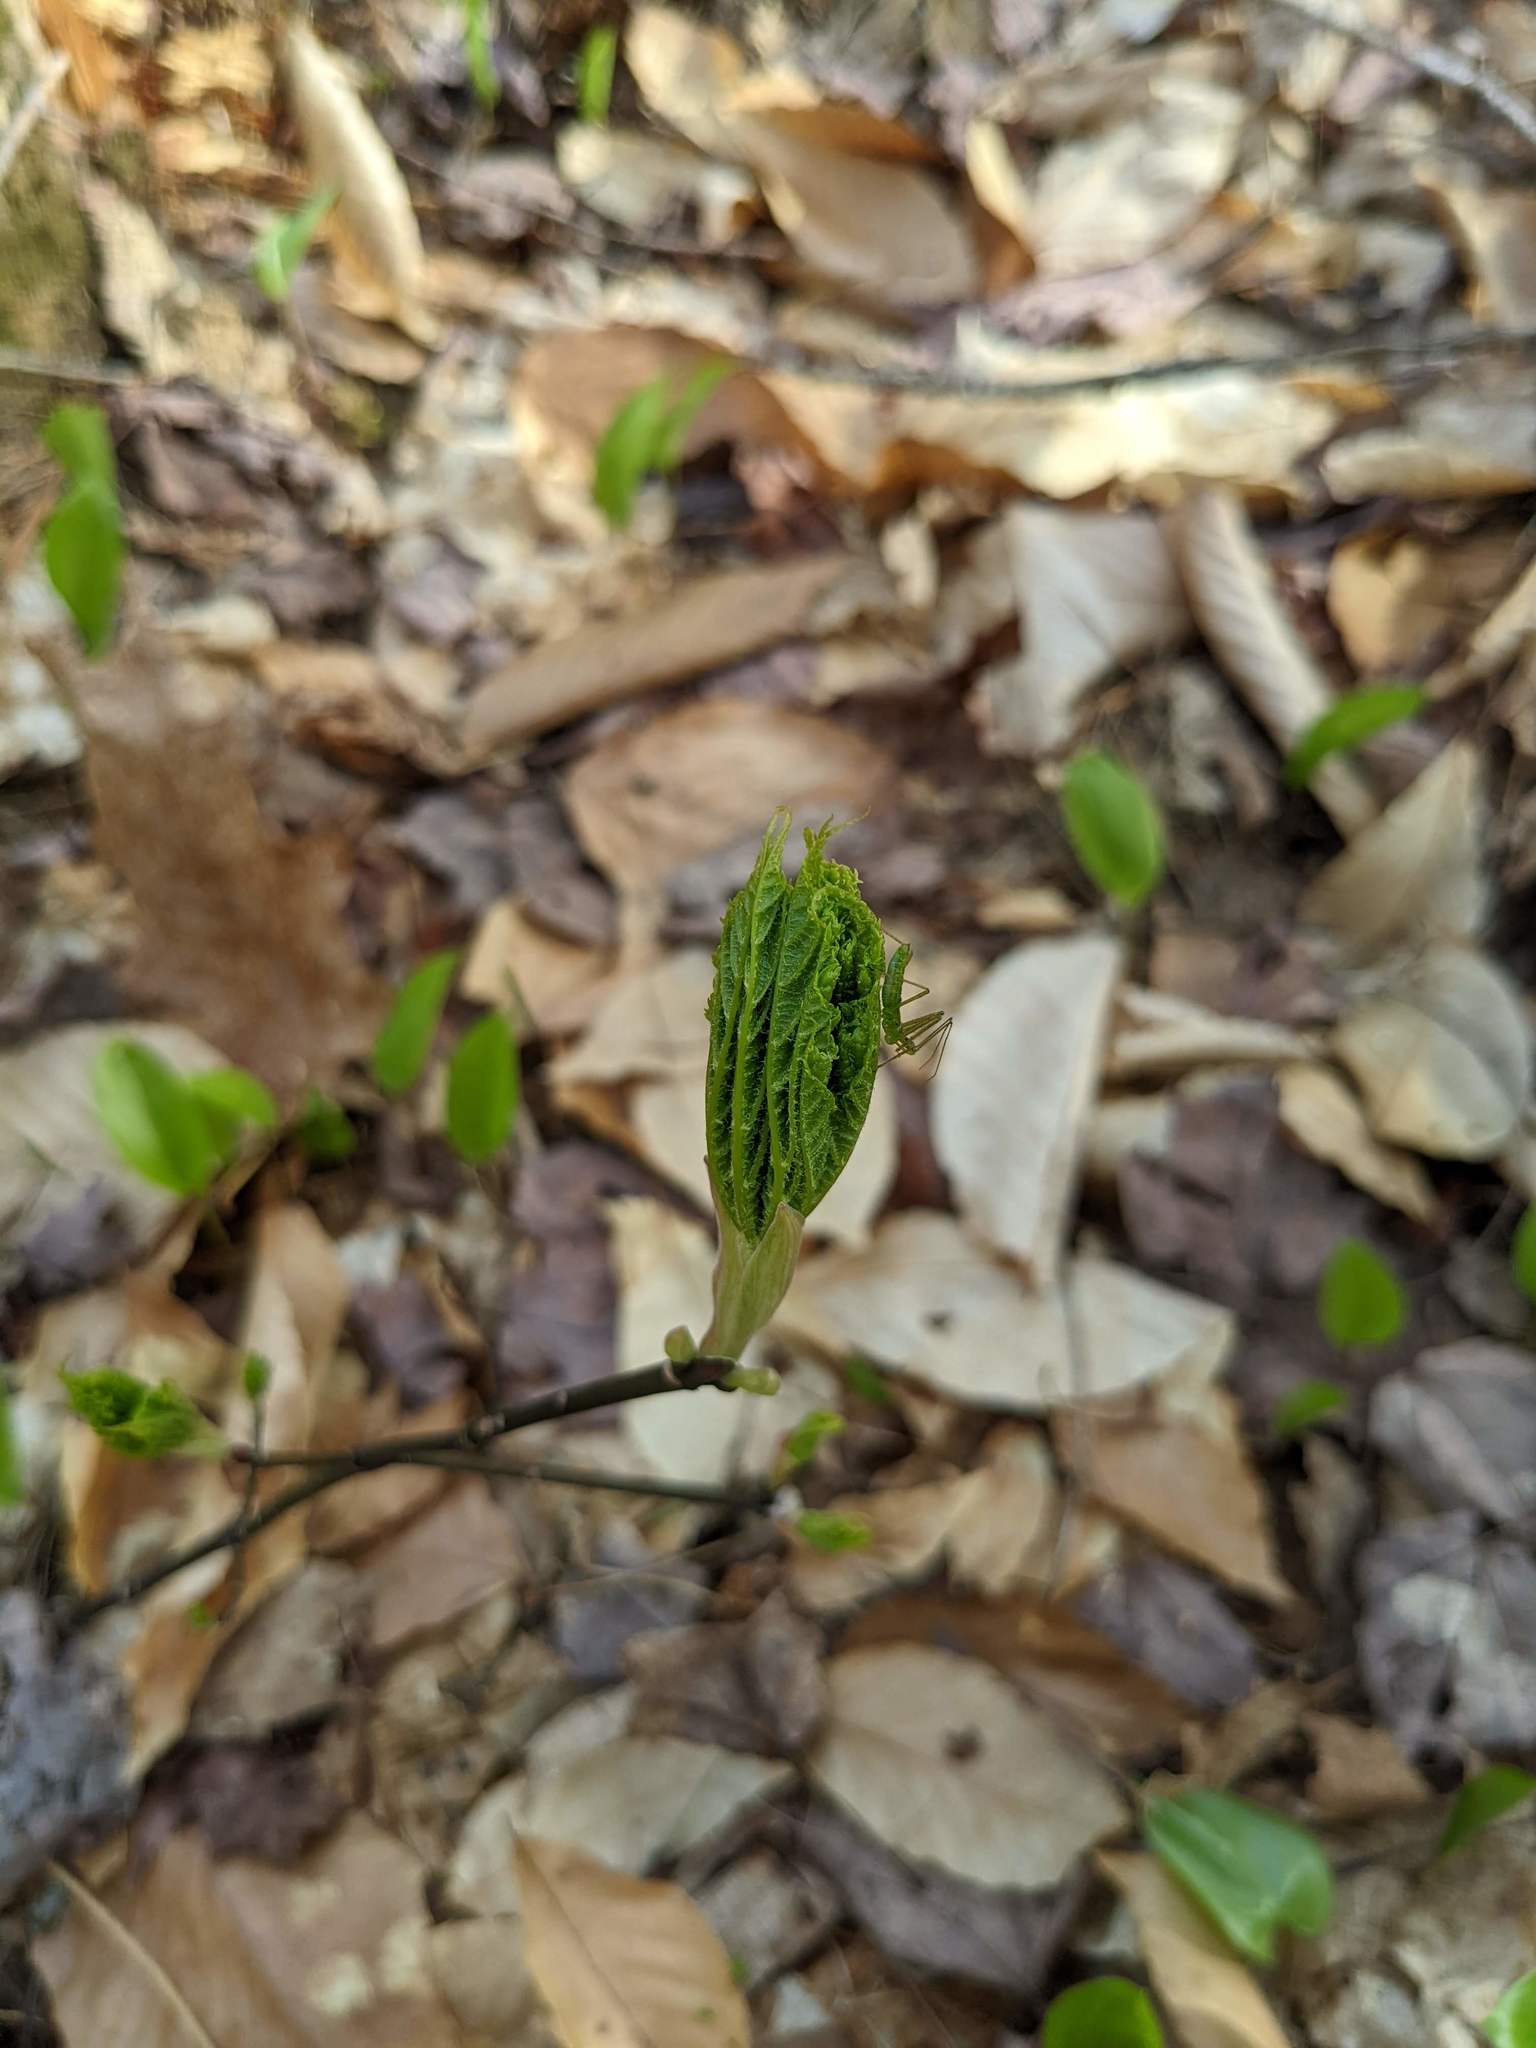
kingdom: Plantae
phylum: Tracheophyta
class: Magnoliopsida
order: Sapindales
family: Sapindaceae
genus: Acer
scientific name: Acer pensylvanicum
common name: Moosewood
